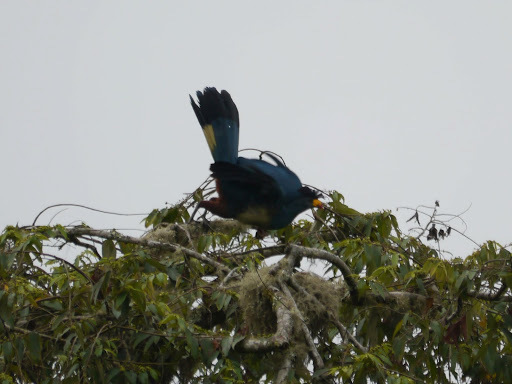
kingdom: Animalia
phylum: Chordata
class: Aves
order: Musophagiformes
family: Musophagidae
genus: Corythaeola
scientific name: Corythaeola cristata
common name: Great blue turaco
